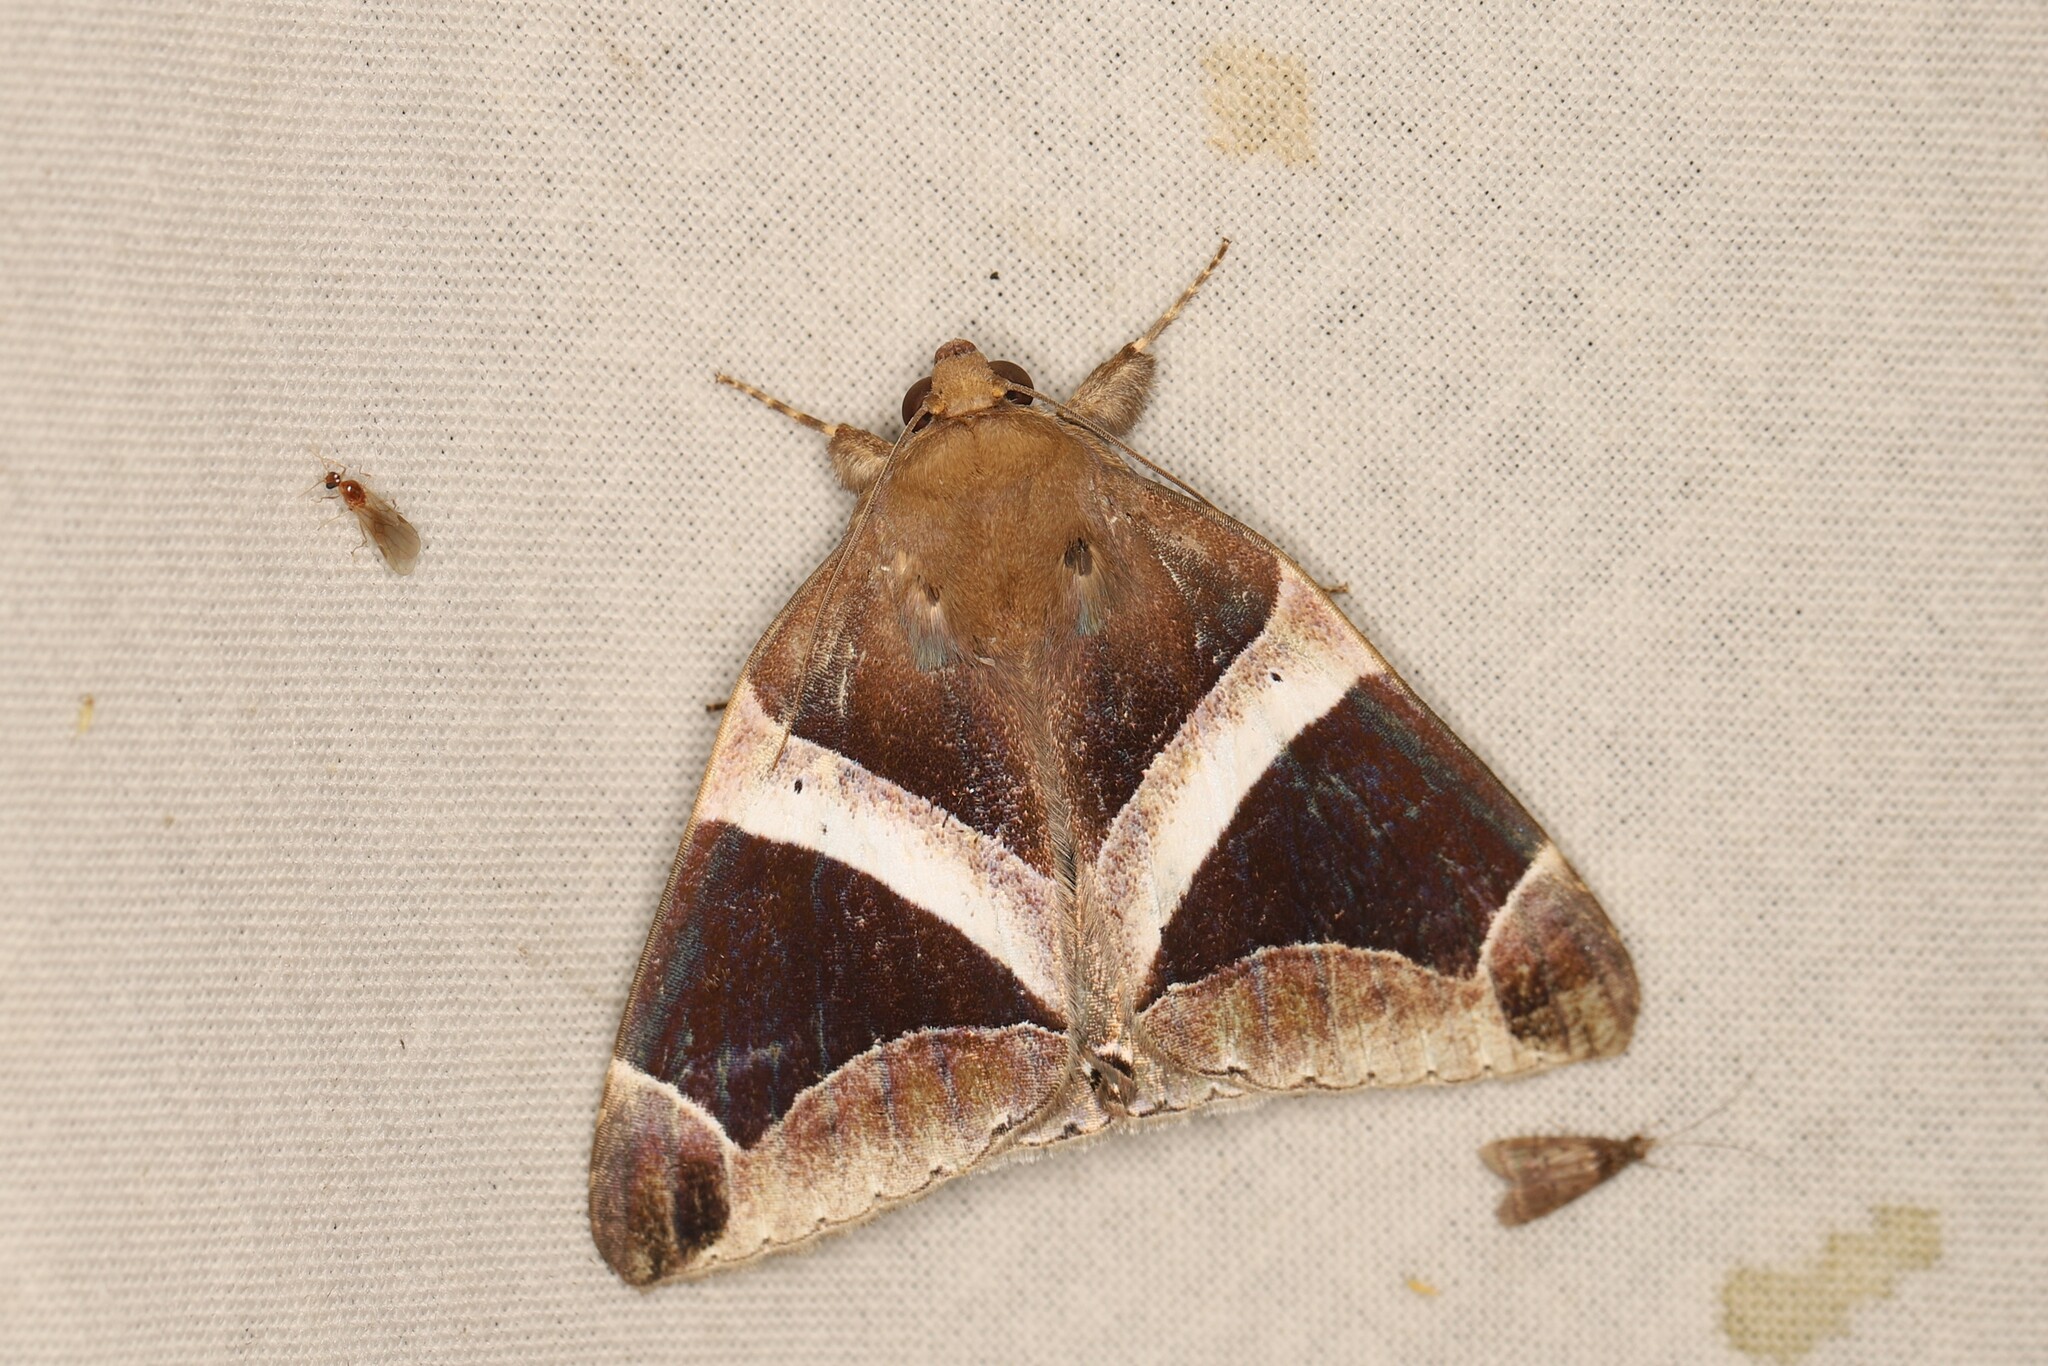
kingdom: Animalia
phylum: Arthropoda
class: Insecta
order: Lepidoptera
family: Erebidae
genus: Parallelia
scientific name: Parallelia expediens
